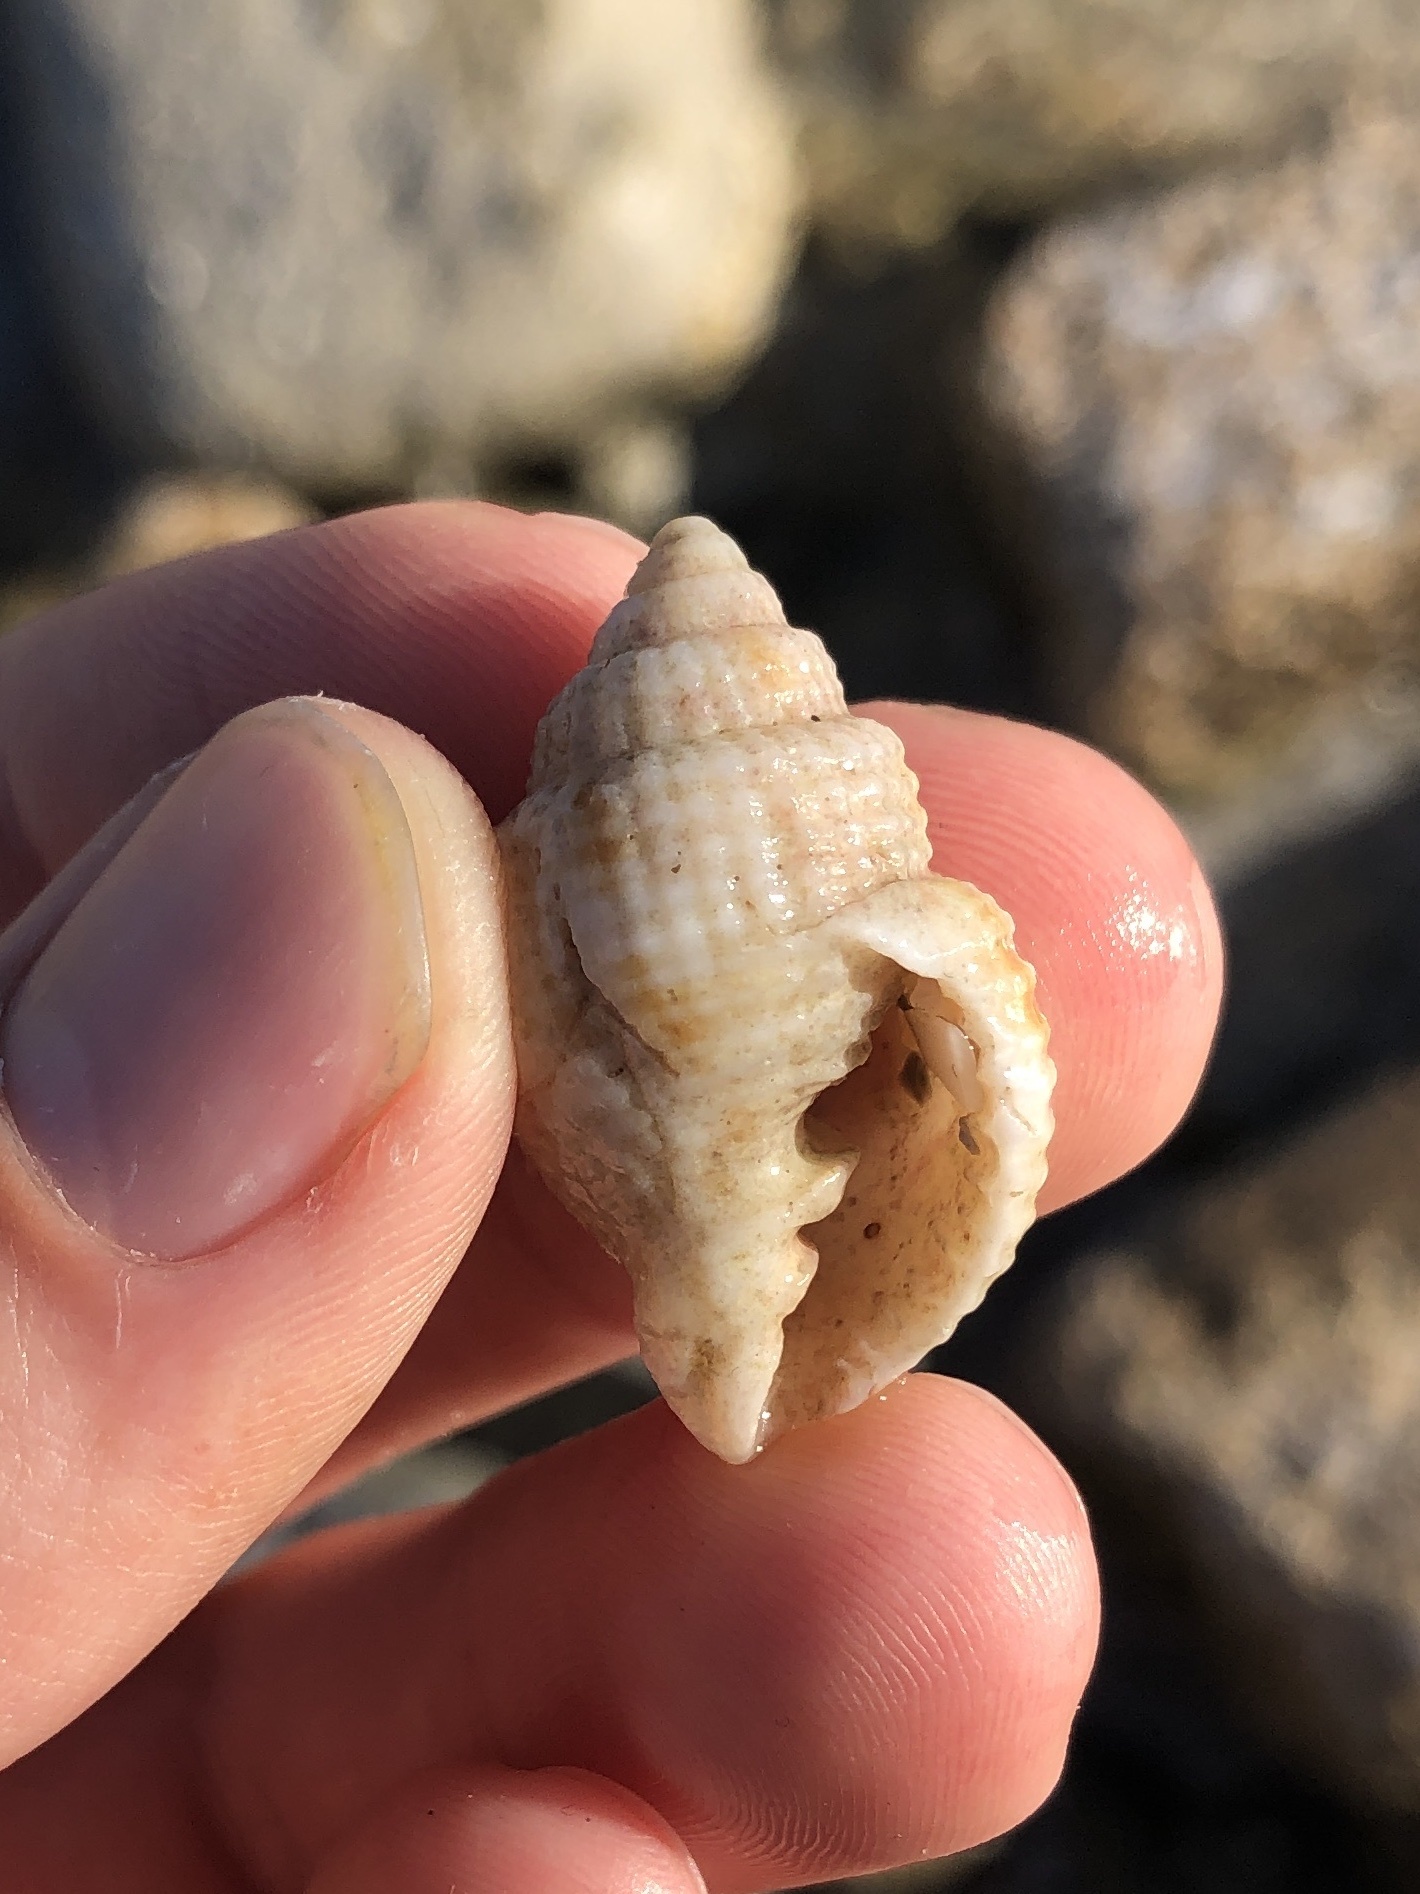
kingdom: Animalia
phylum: Mollusca
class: Gastropoda
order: Neogastropoda
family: Cancellariidae
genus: Cancellaria
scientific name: Cancellaria reticulata
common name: Common nutmeg
